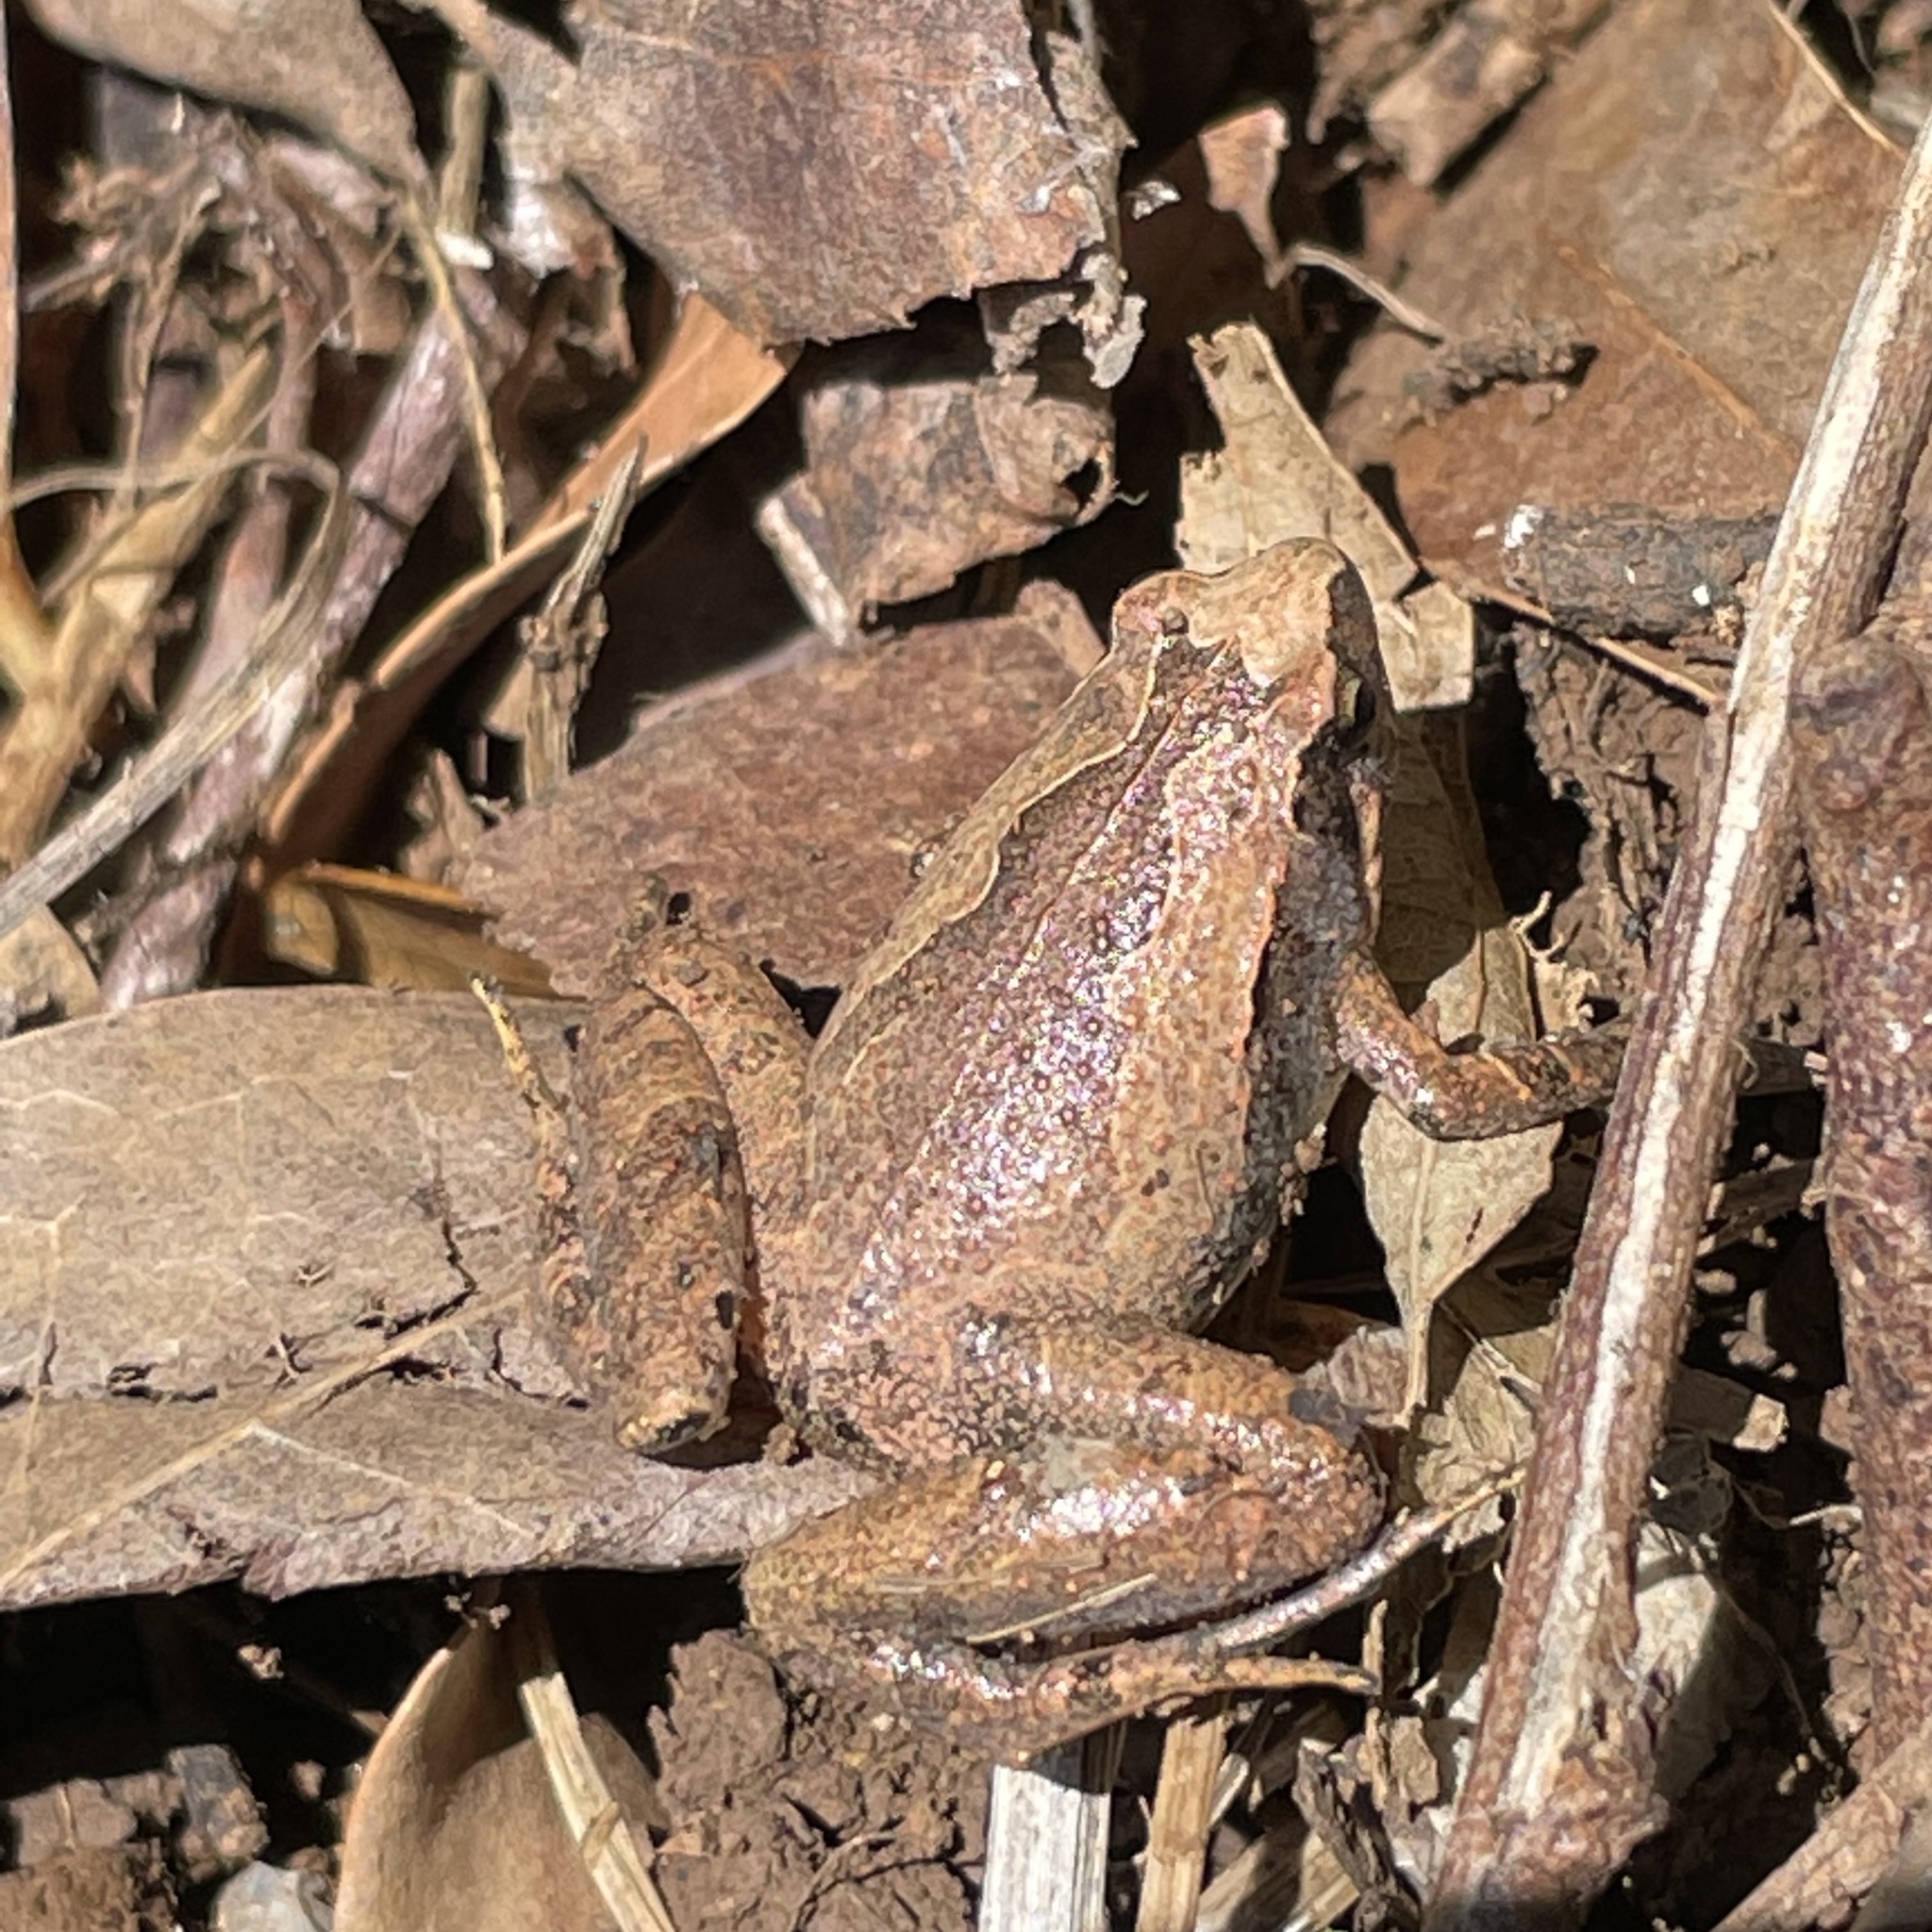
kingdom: Animalia
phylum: Chordata
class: Amphibia
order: Anura
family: Microhylidae
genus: Microhyla
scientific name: Microhyla okinavensis
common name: Okinawa narrow-mouthed toad
